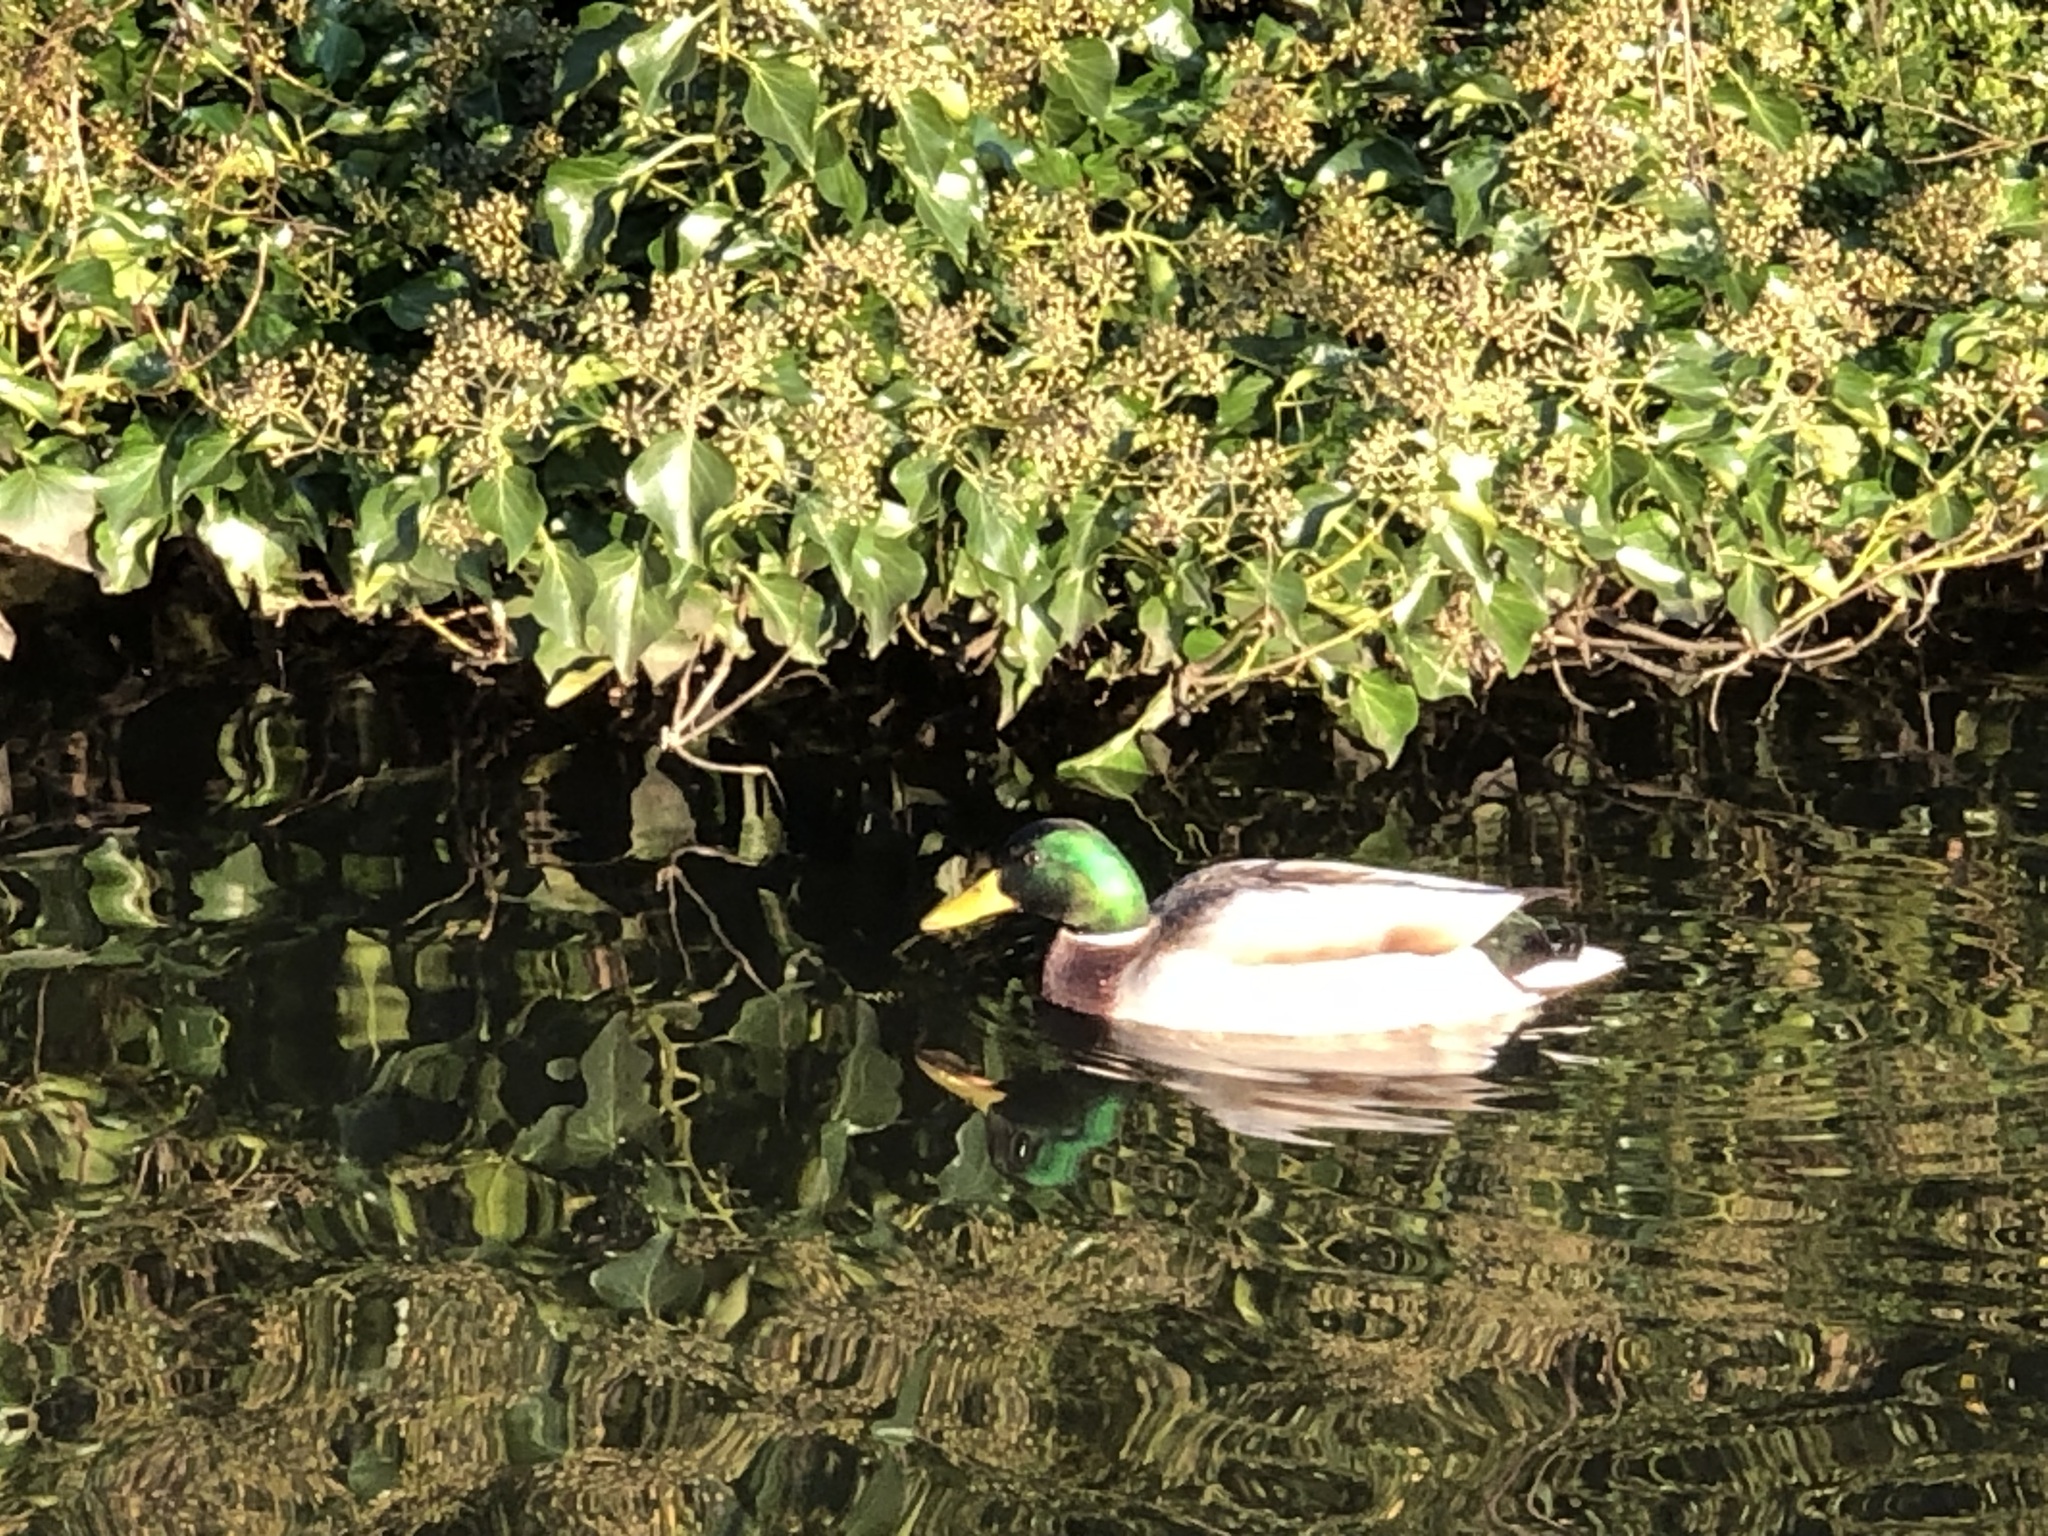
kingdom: Animalia
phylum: Chordata
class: Aves
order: Anseriformes
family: Anatidae
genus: Anas
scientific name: Anas platyrhynchos
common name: Mallard
